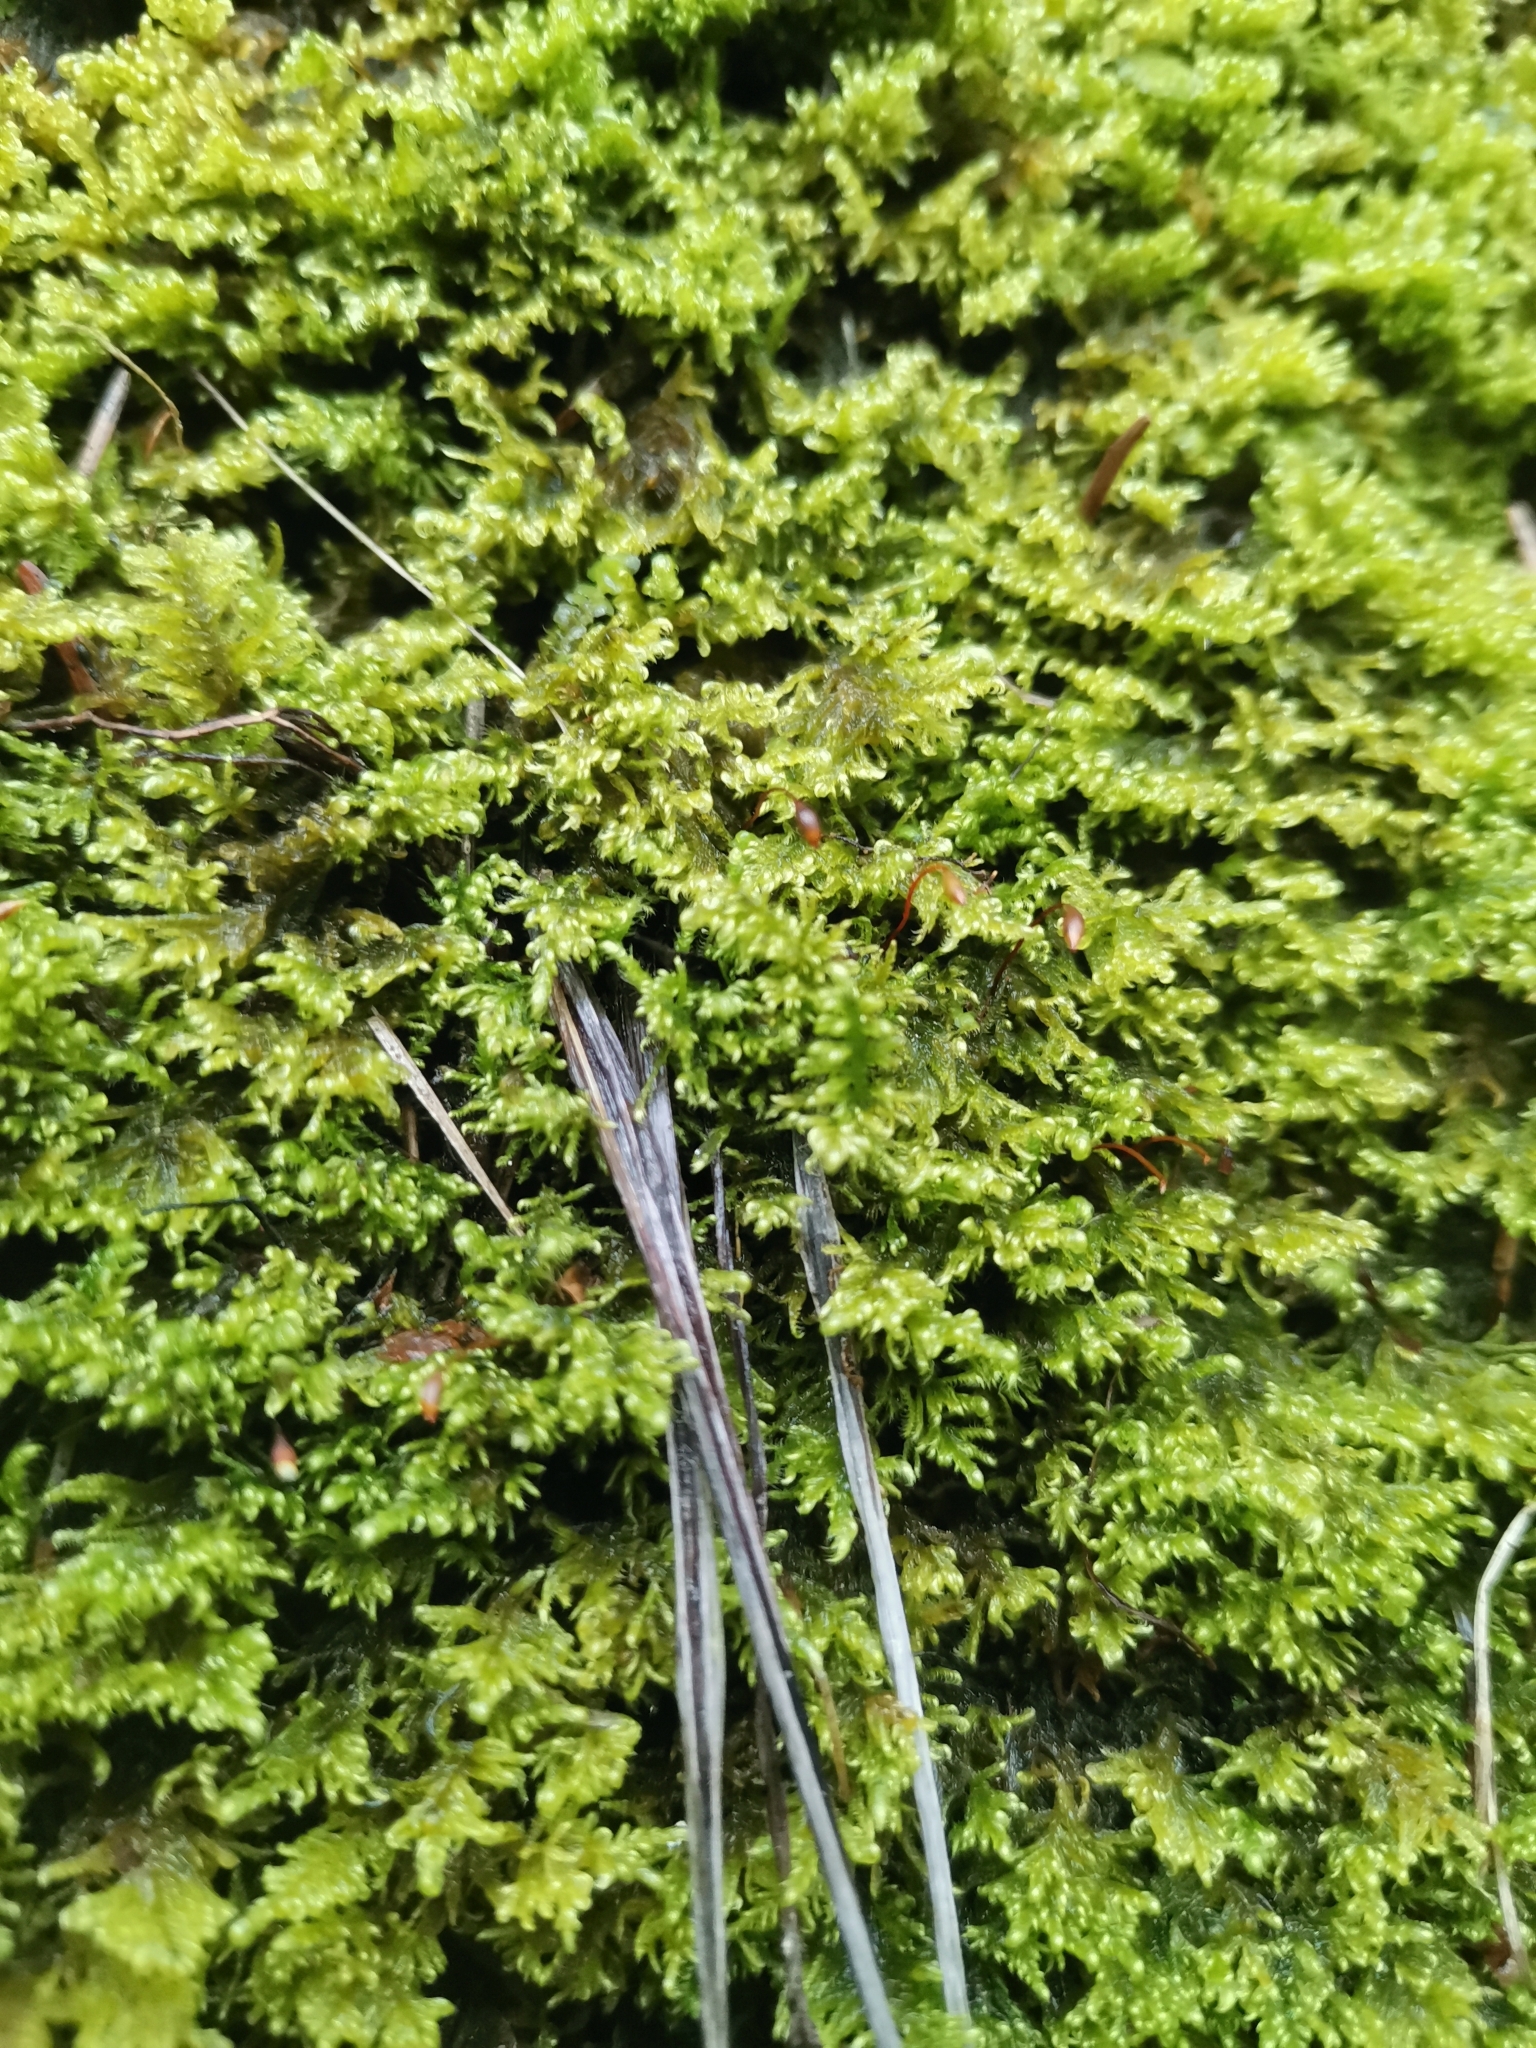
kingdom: Plantae
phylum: Bryophyta
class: Bryopsida
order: Hypnales
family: Myuriaceae
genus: Ctenidium
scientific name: Ctenidium molluscum
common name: Chalk comb-moss
